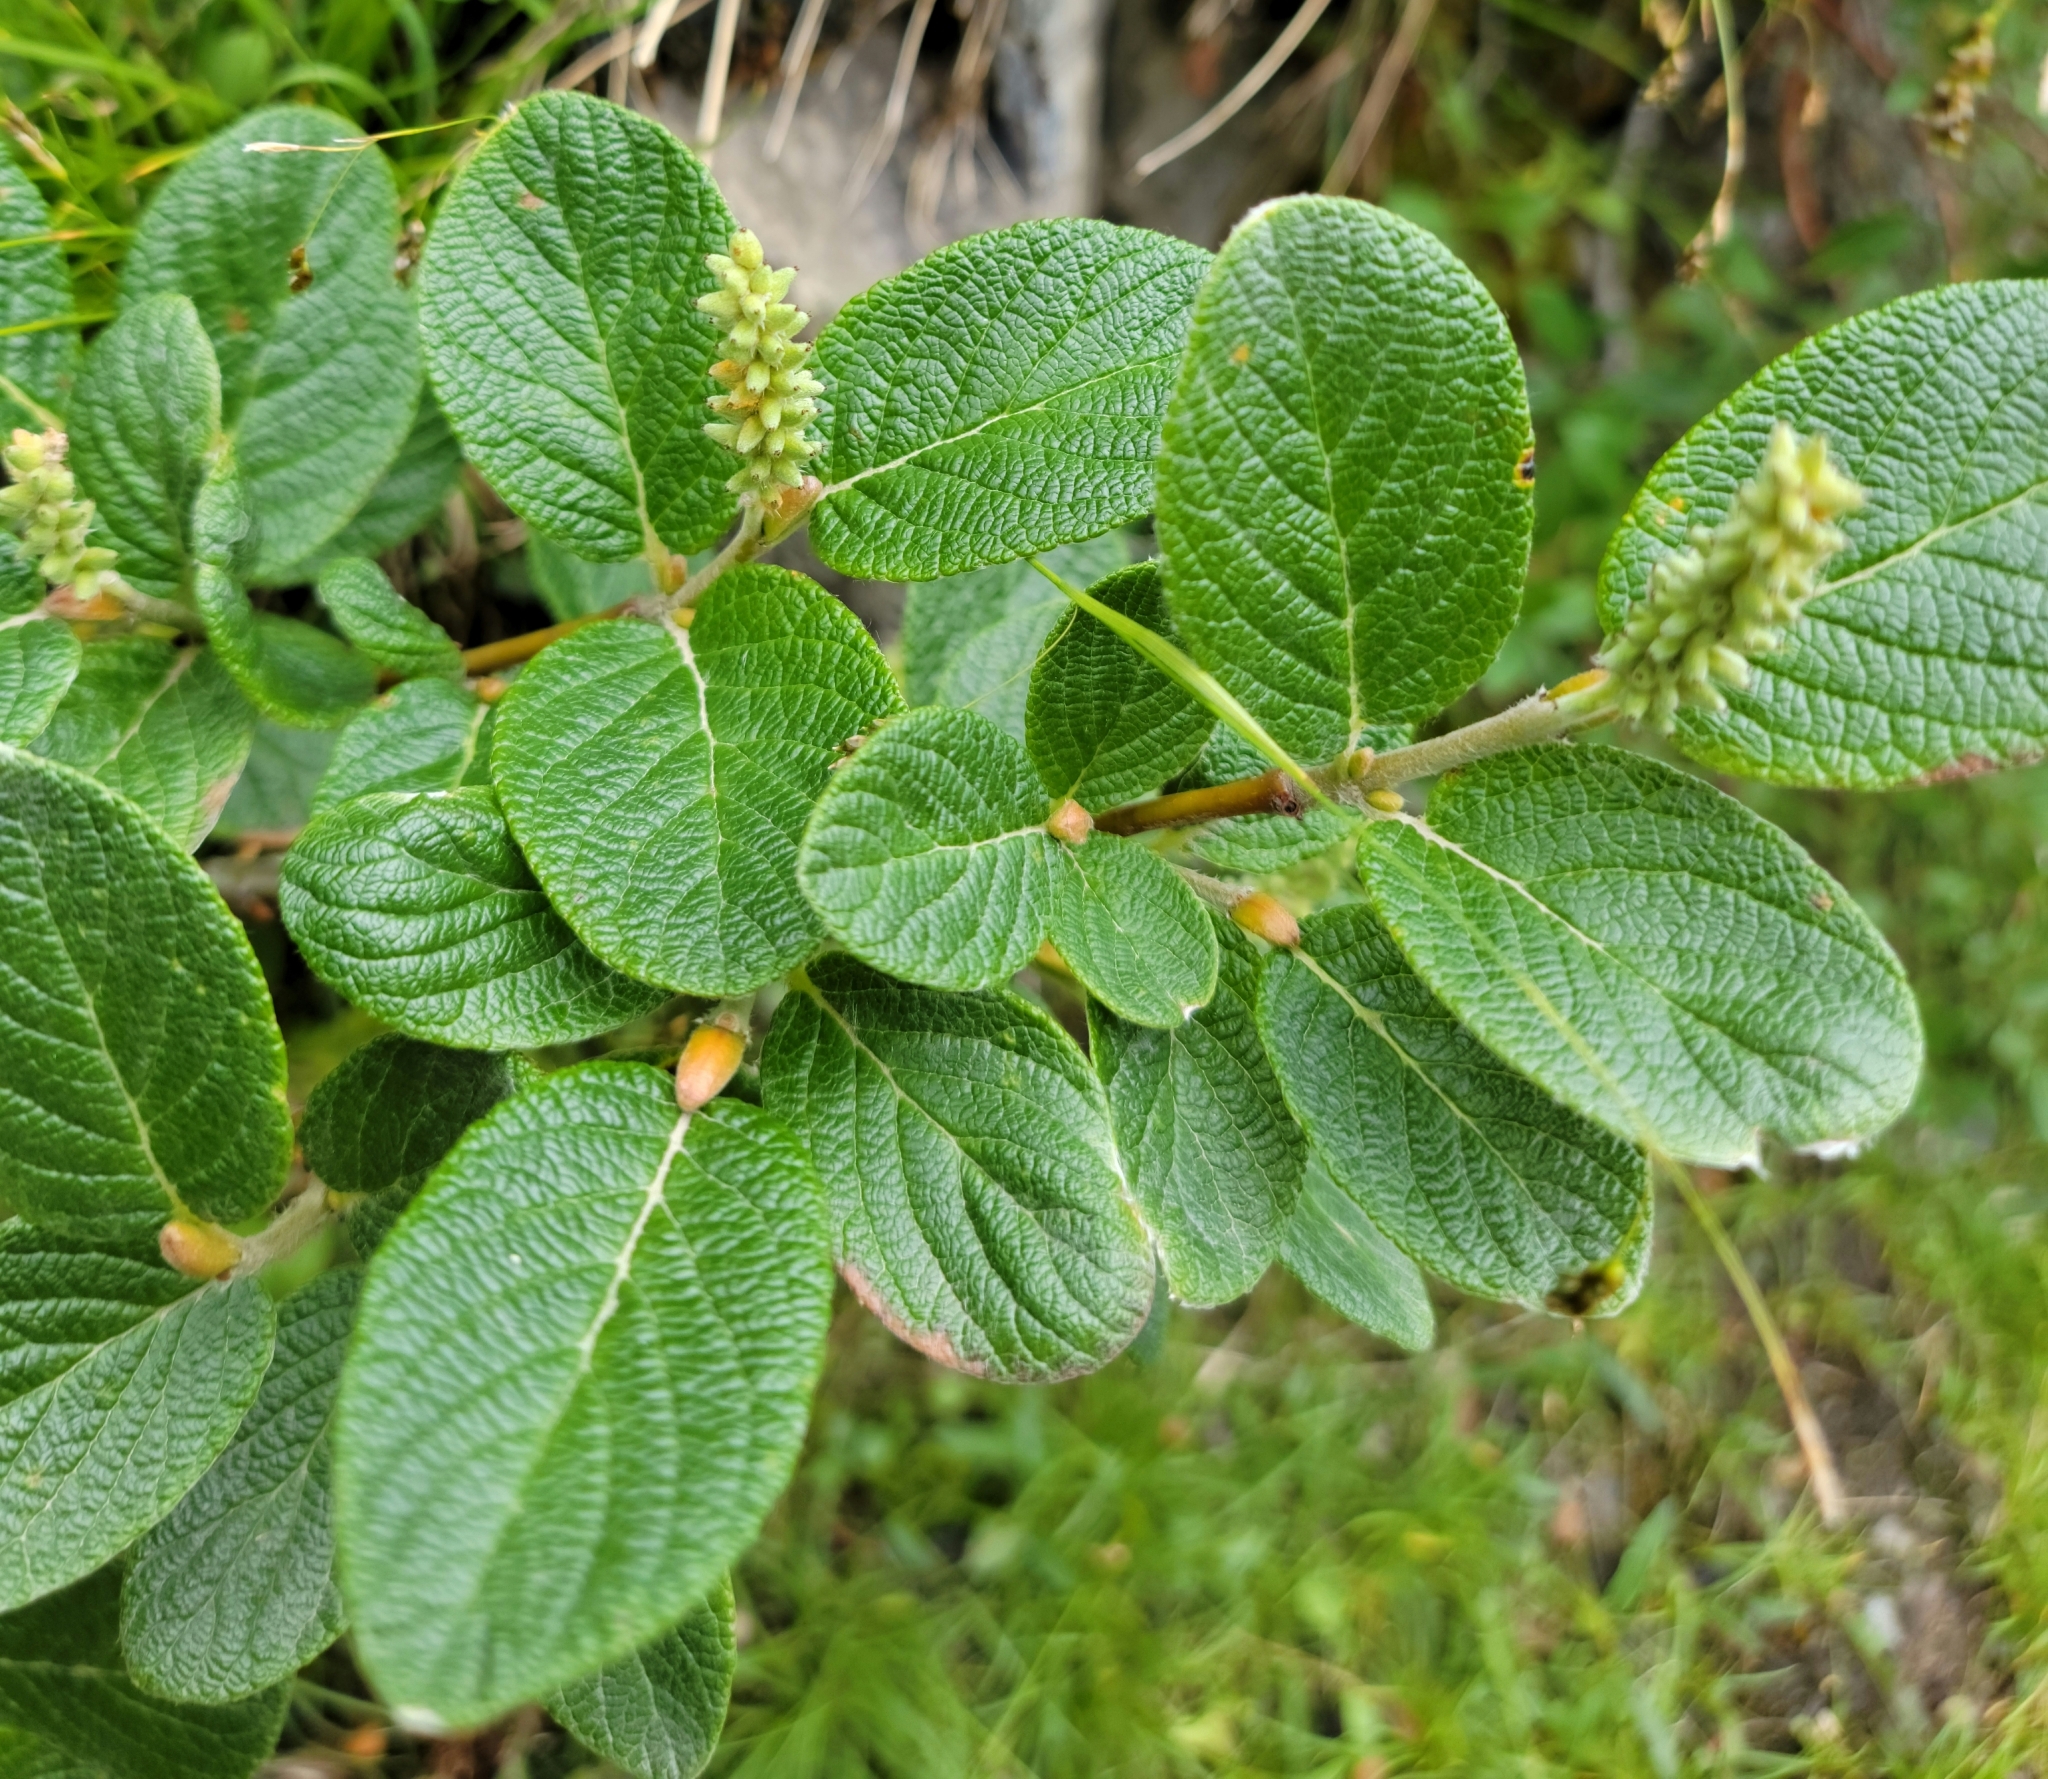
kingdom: Plantae
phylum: Tracheophyta
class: Magnoliopsida
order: Malpighiales
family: Salicaceae
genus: Salix
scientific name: Salix vestita
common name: Hairy willow
